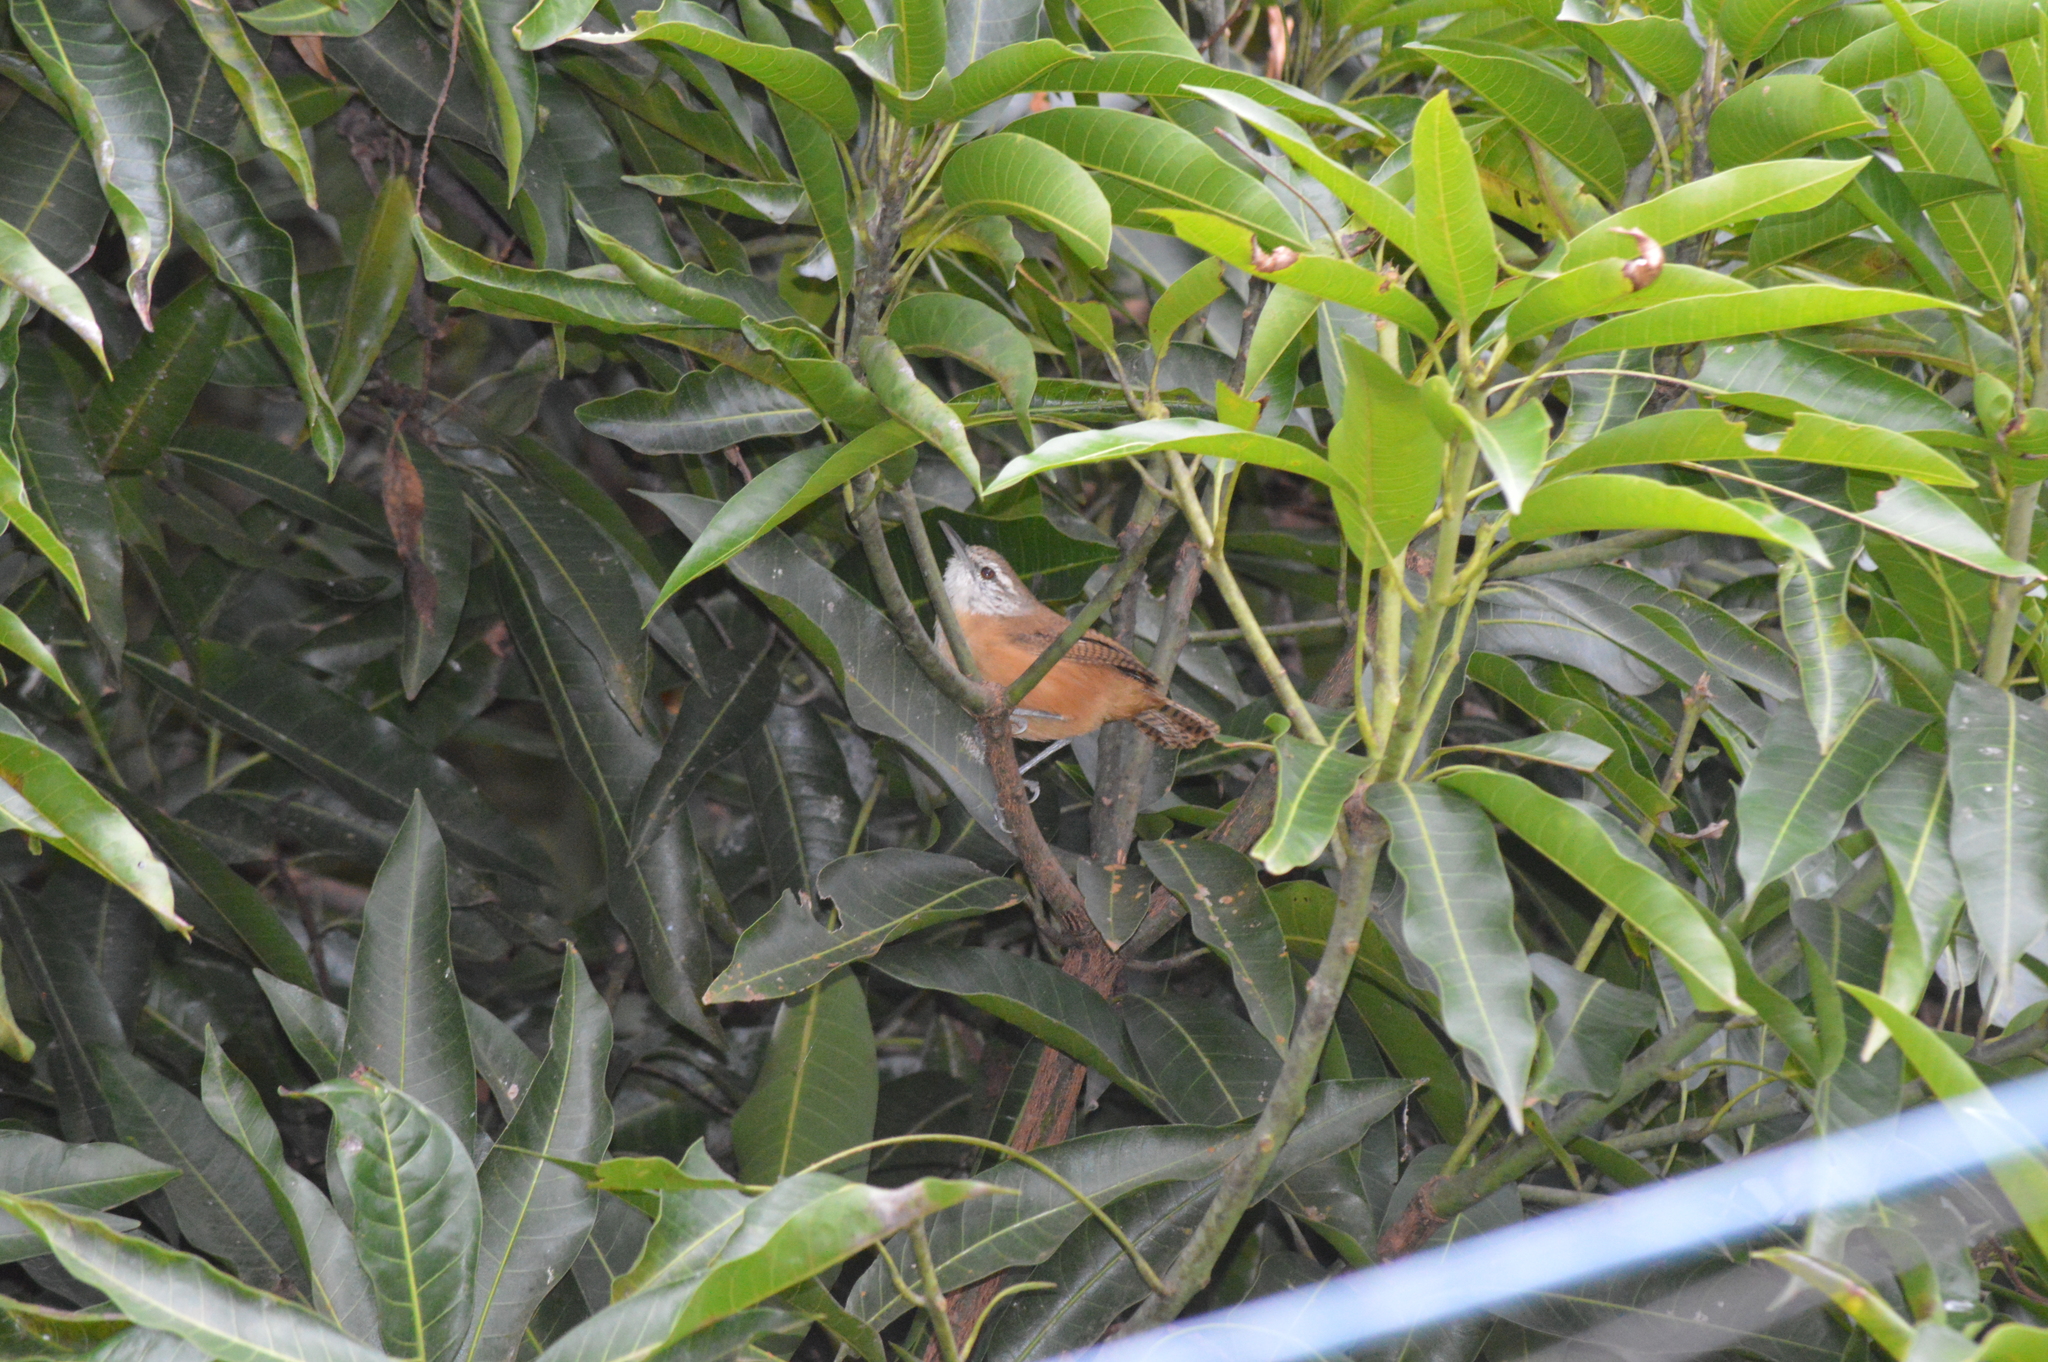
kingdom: Animalia
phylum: Chordata
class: Aves
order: Passeriformes
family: Troglodytidae
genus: Cantorchilus
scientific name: Cantorchilus leucotis
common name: Buff-breasted wren
